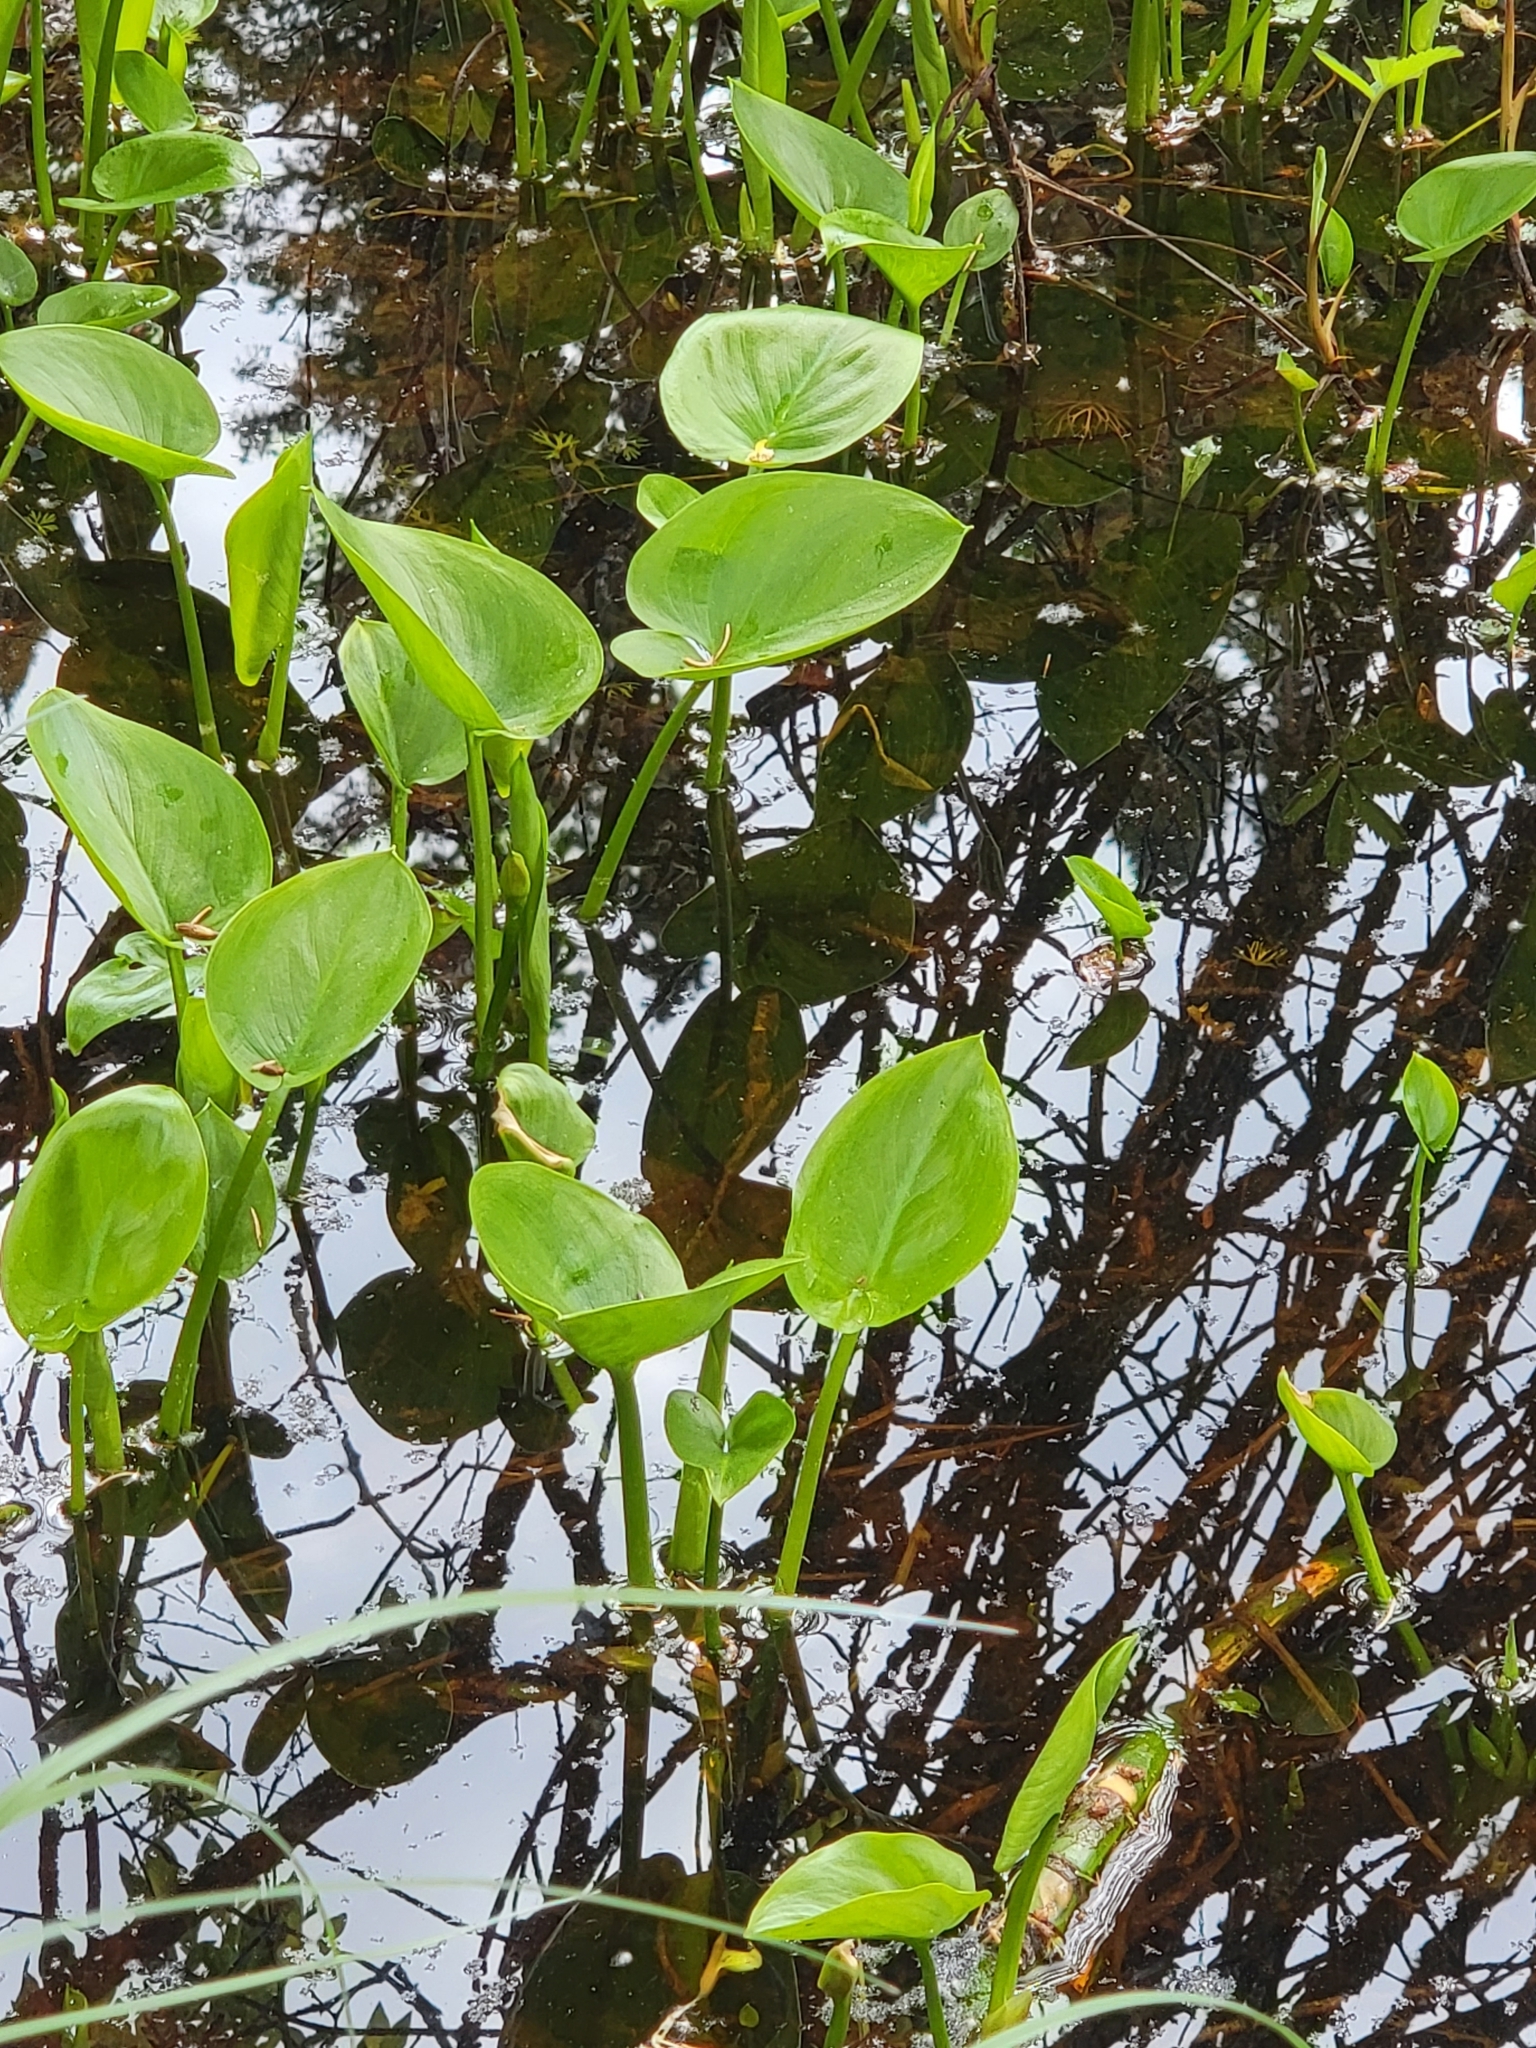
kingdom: Plantae
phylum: Tracheophyta
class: Magnoliopsida
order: Ranunculales
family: Ranunculaceae
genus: Caltha
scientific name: Caltha palustris
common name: Marsh marigold
